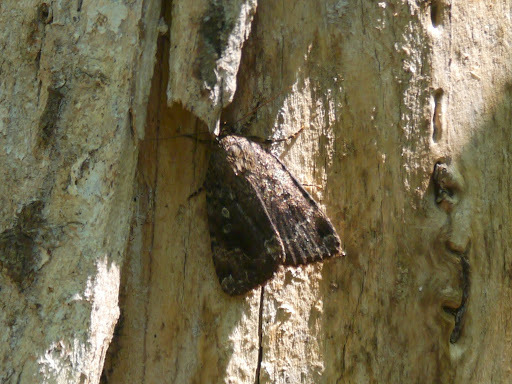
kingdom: Animalia
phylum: Arthropoda
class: Insecta
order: Lepidoptera
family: Noctuidae
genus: Amphipyra
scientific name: Amphipyra pyramidoides
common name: American copper underwing
